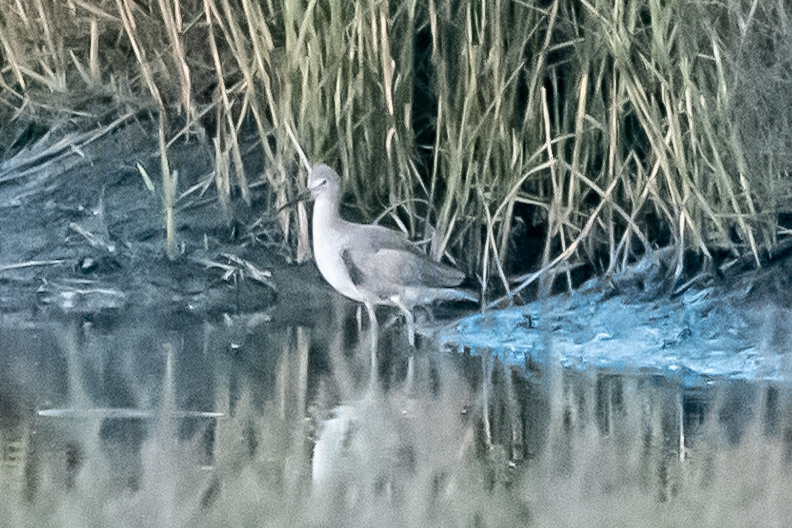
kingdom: Animalia
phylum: Chordata
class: Aves
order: Charadriiformes
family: Scolopacidae
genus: Tringa
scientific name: Tringa semipalmata
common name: Willet
